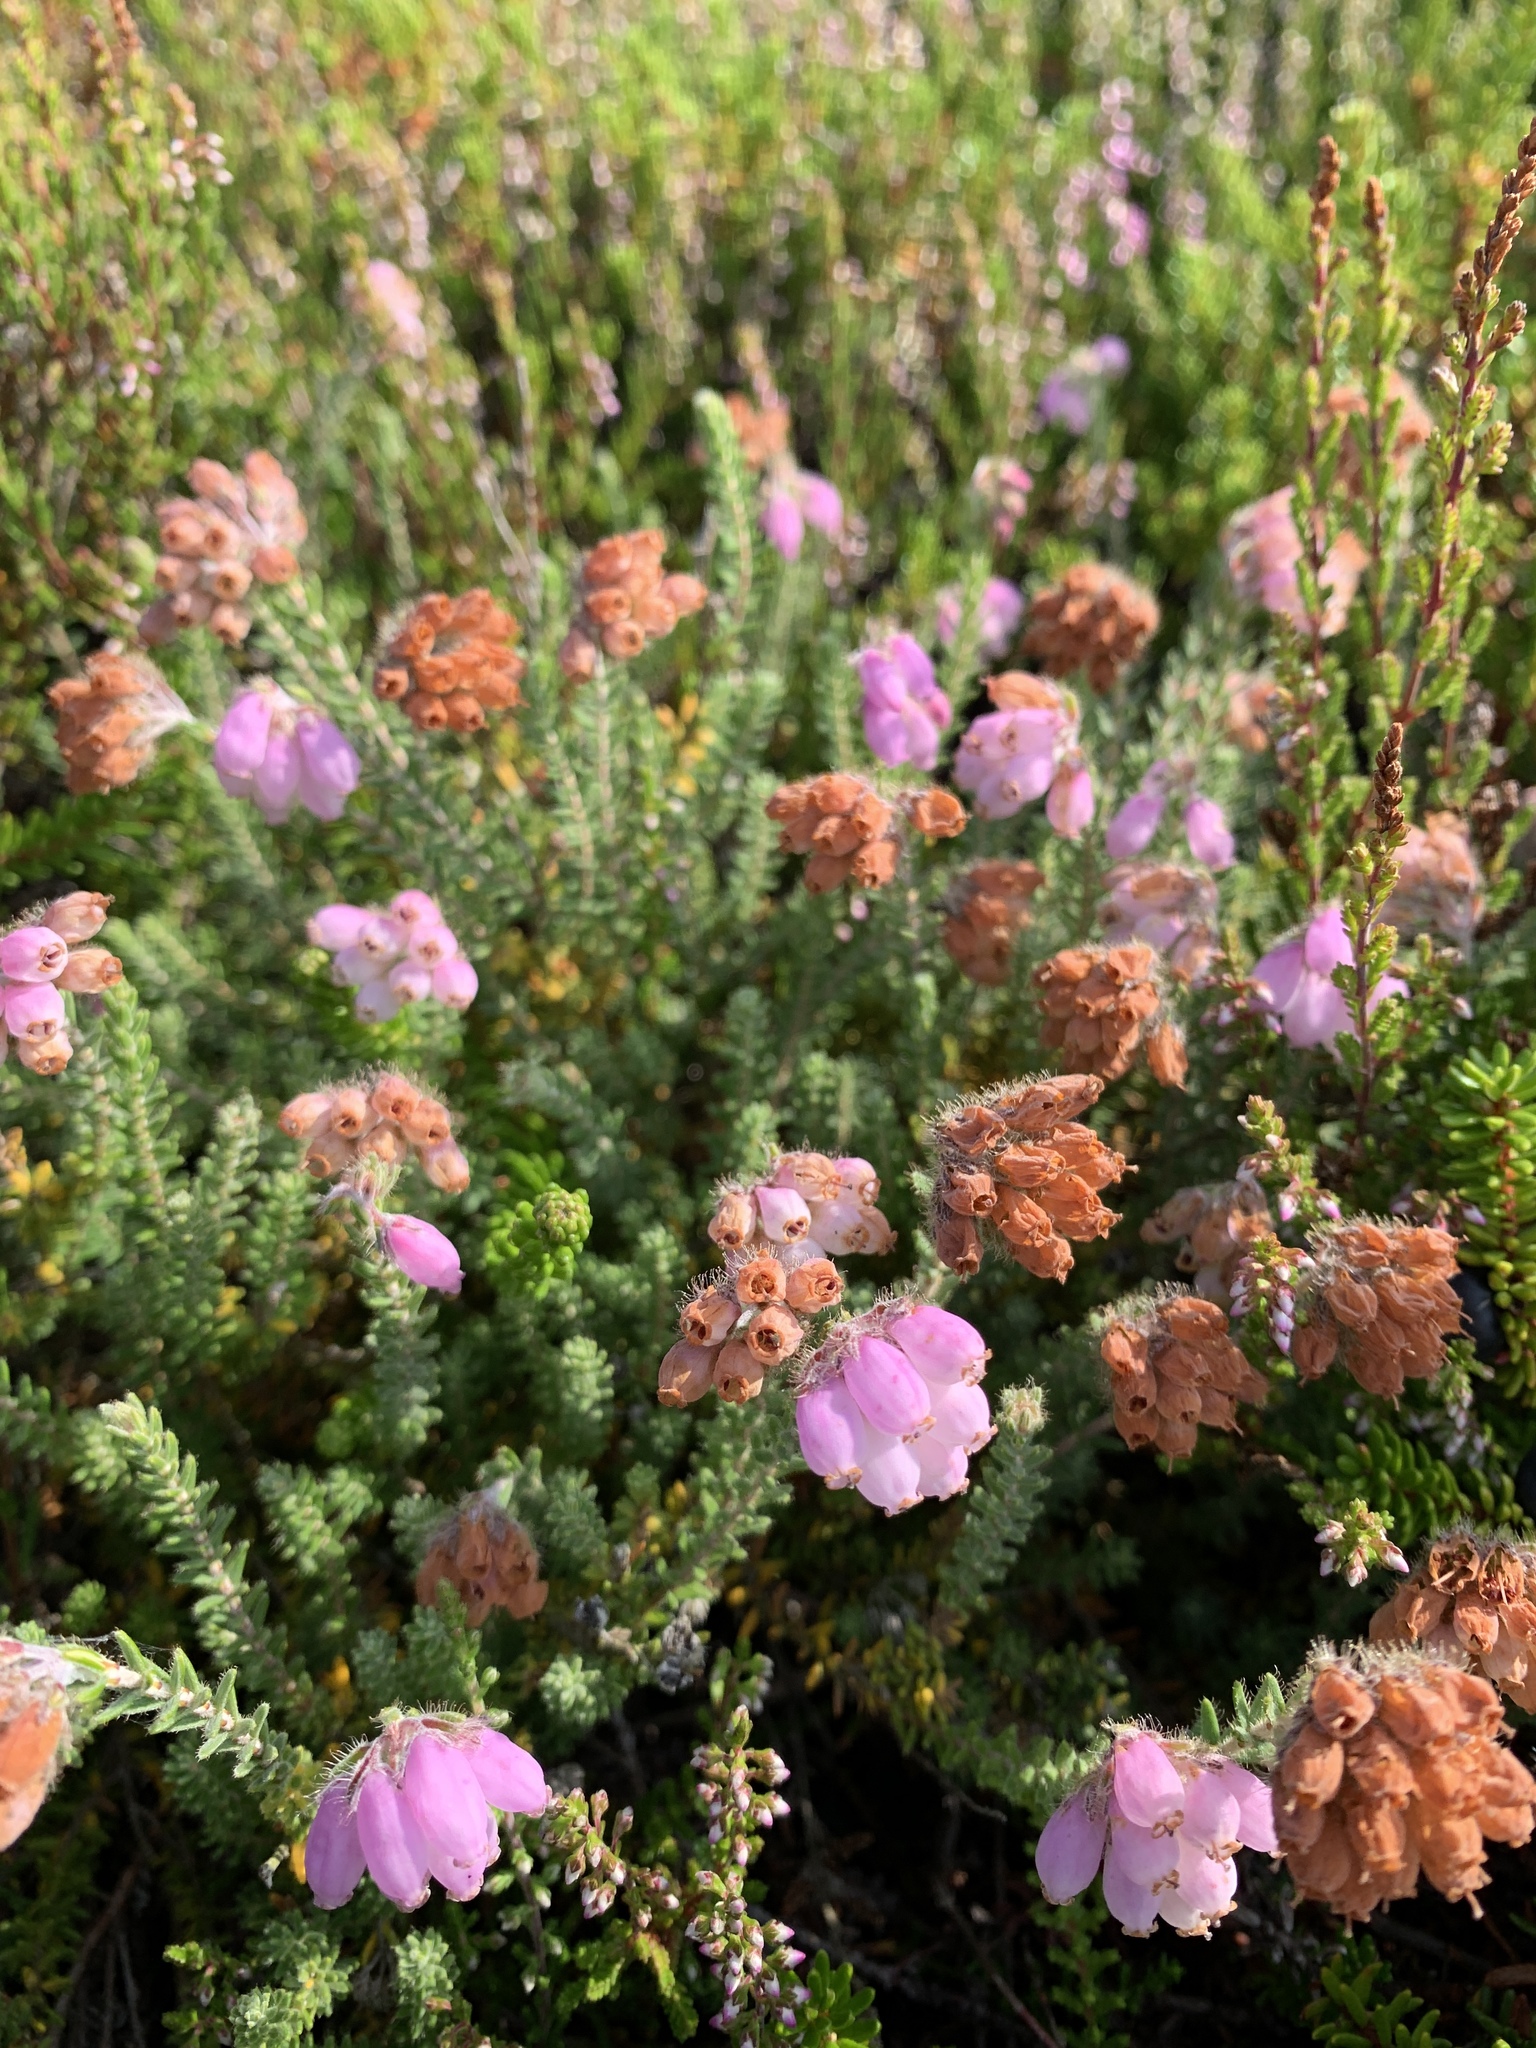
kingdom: Plantae
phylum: Tracheophyta
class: Magnoliopsida
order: Ericales
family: Ericaceae
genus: Erica
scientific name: Erica tetralix
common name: Cross-leaved heath
